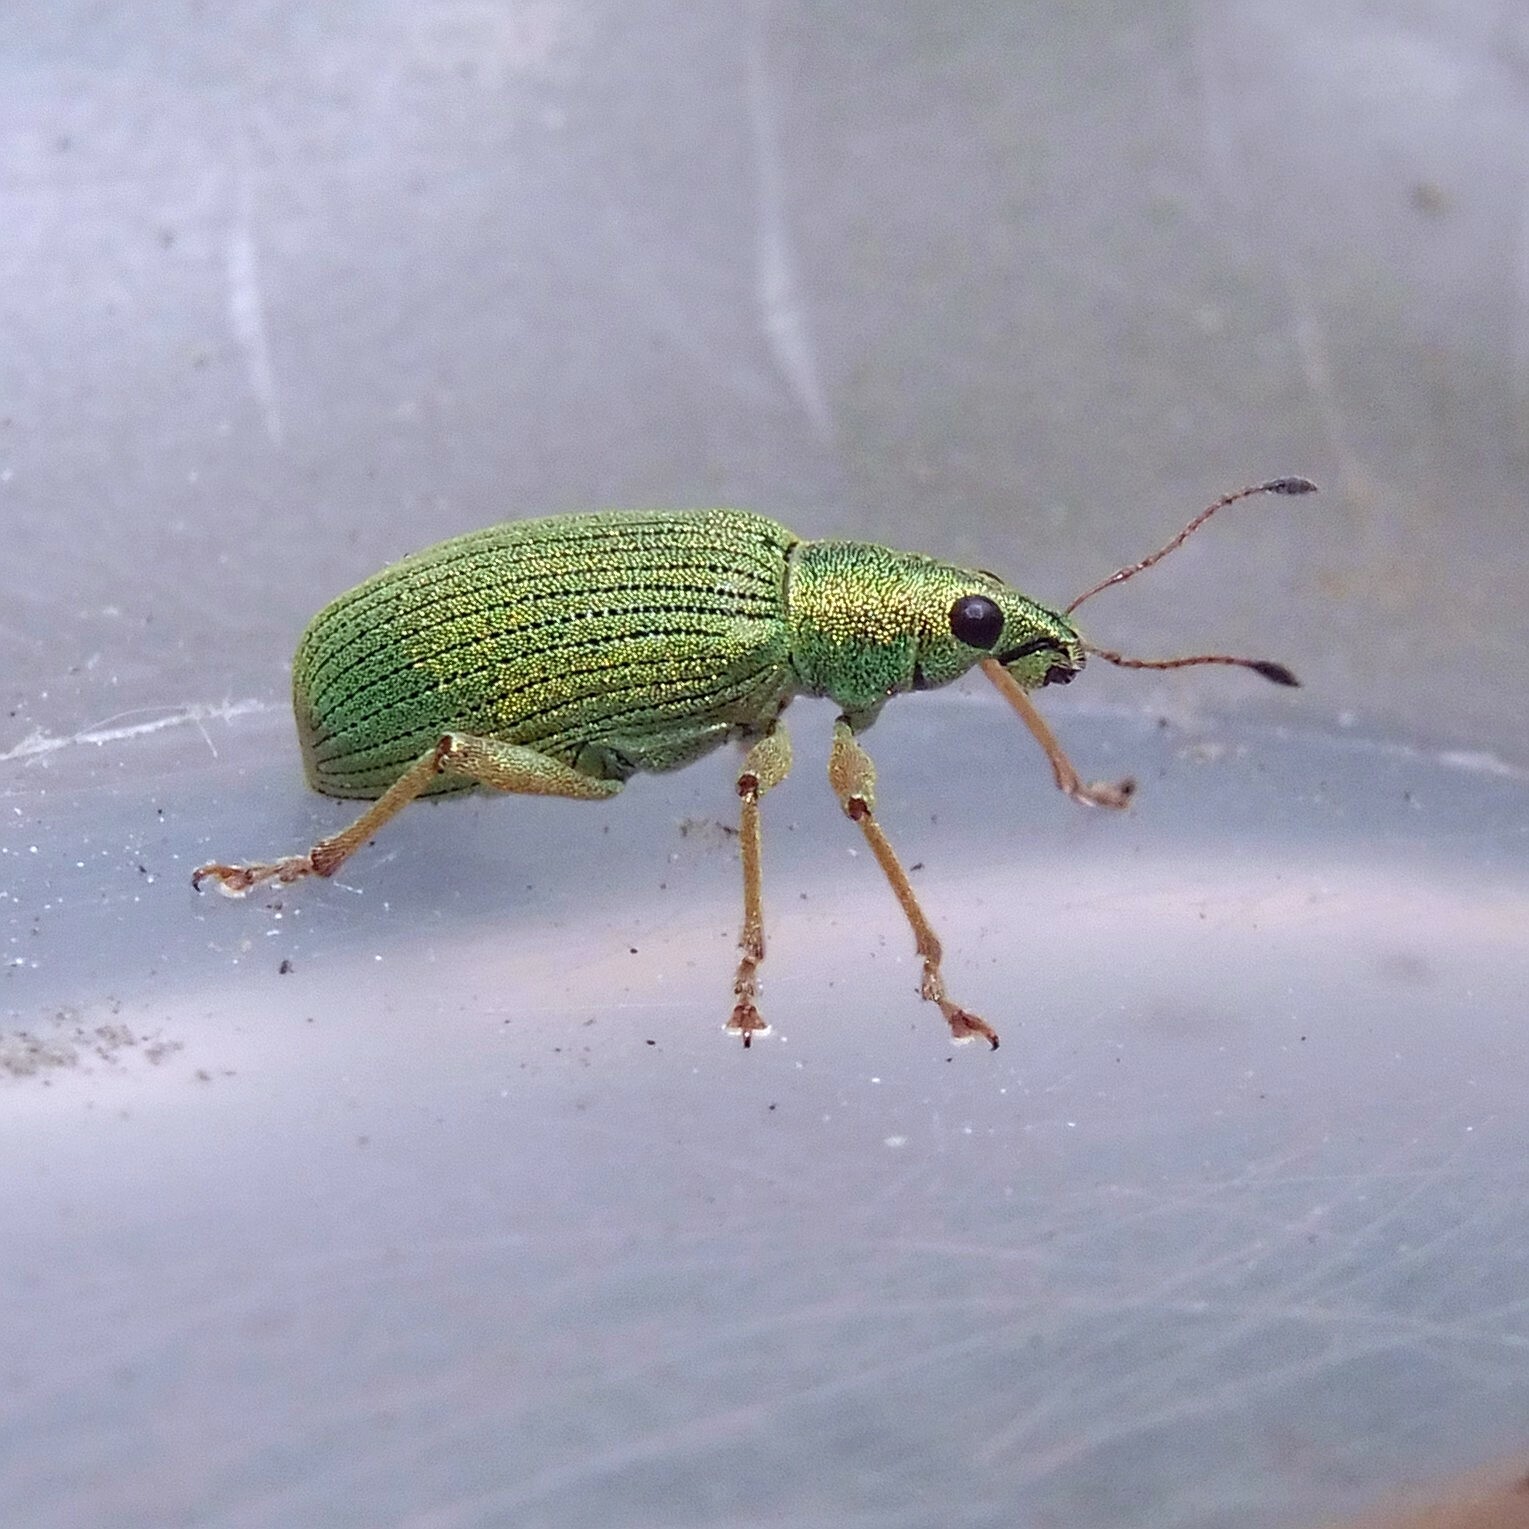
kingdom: Animalia
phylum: Arthropoda
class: Insecta
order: Coleoptera
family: Curculionidae
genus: Polydrusus
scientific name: Polydrusus formosus
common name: Weevil
